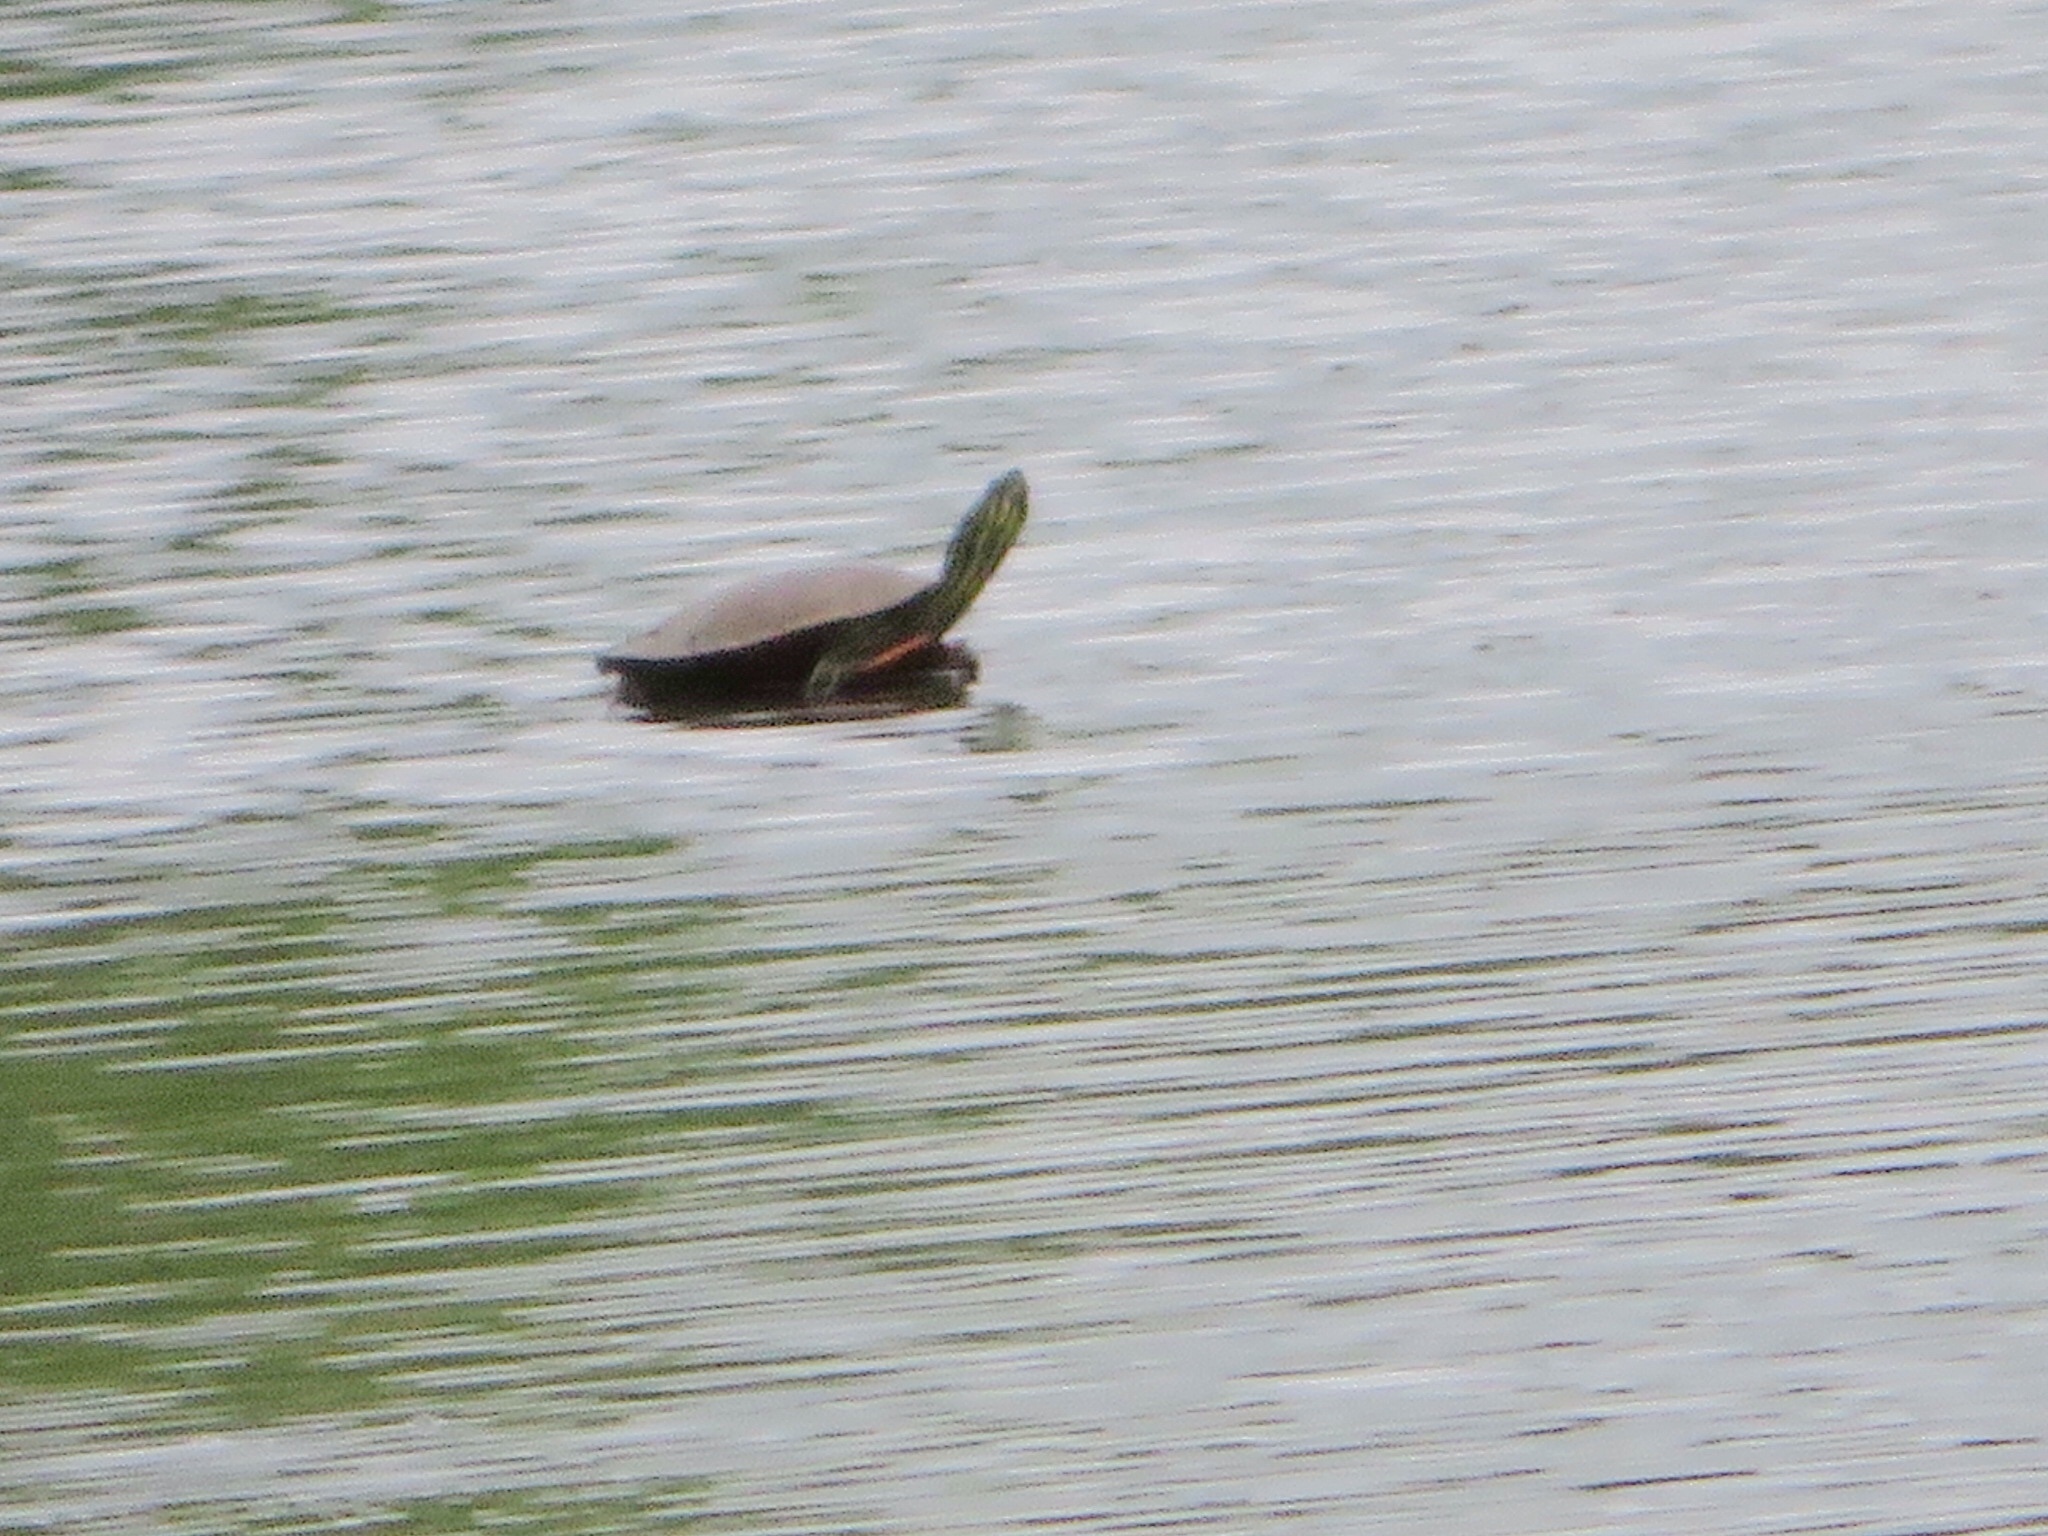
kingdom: Animalia
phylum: Chordata
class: Testudines
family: Emydidae
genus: Chrysemys
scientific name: Chrysemys picta
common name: Painted turtle
